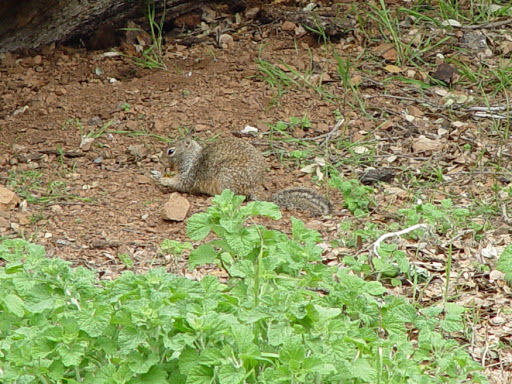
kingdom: Animalia
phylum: Chordata
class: Mammalia
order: Rodentia
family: Sciuridae
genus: Otospermophilus
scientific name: Otospermophilus beecheyi
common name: California ground squirrel
